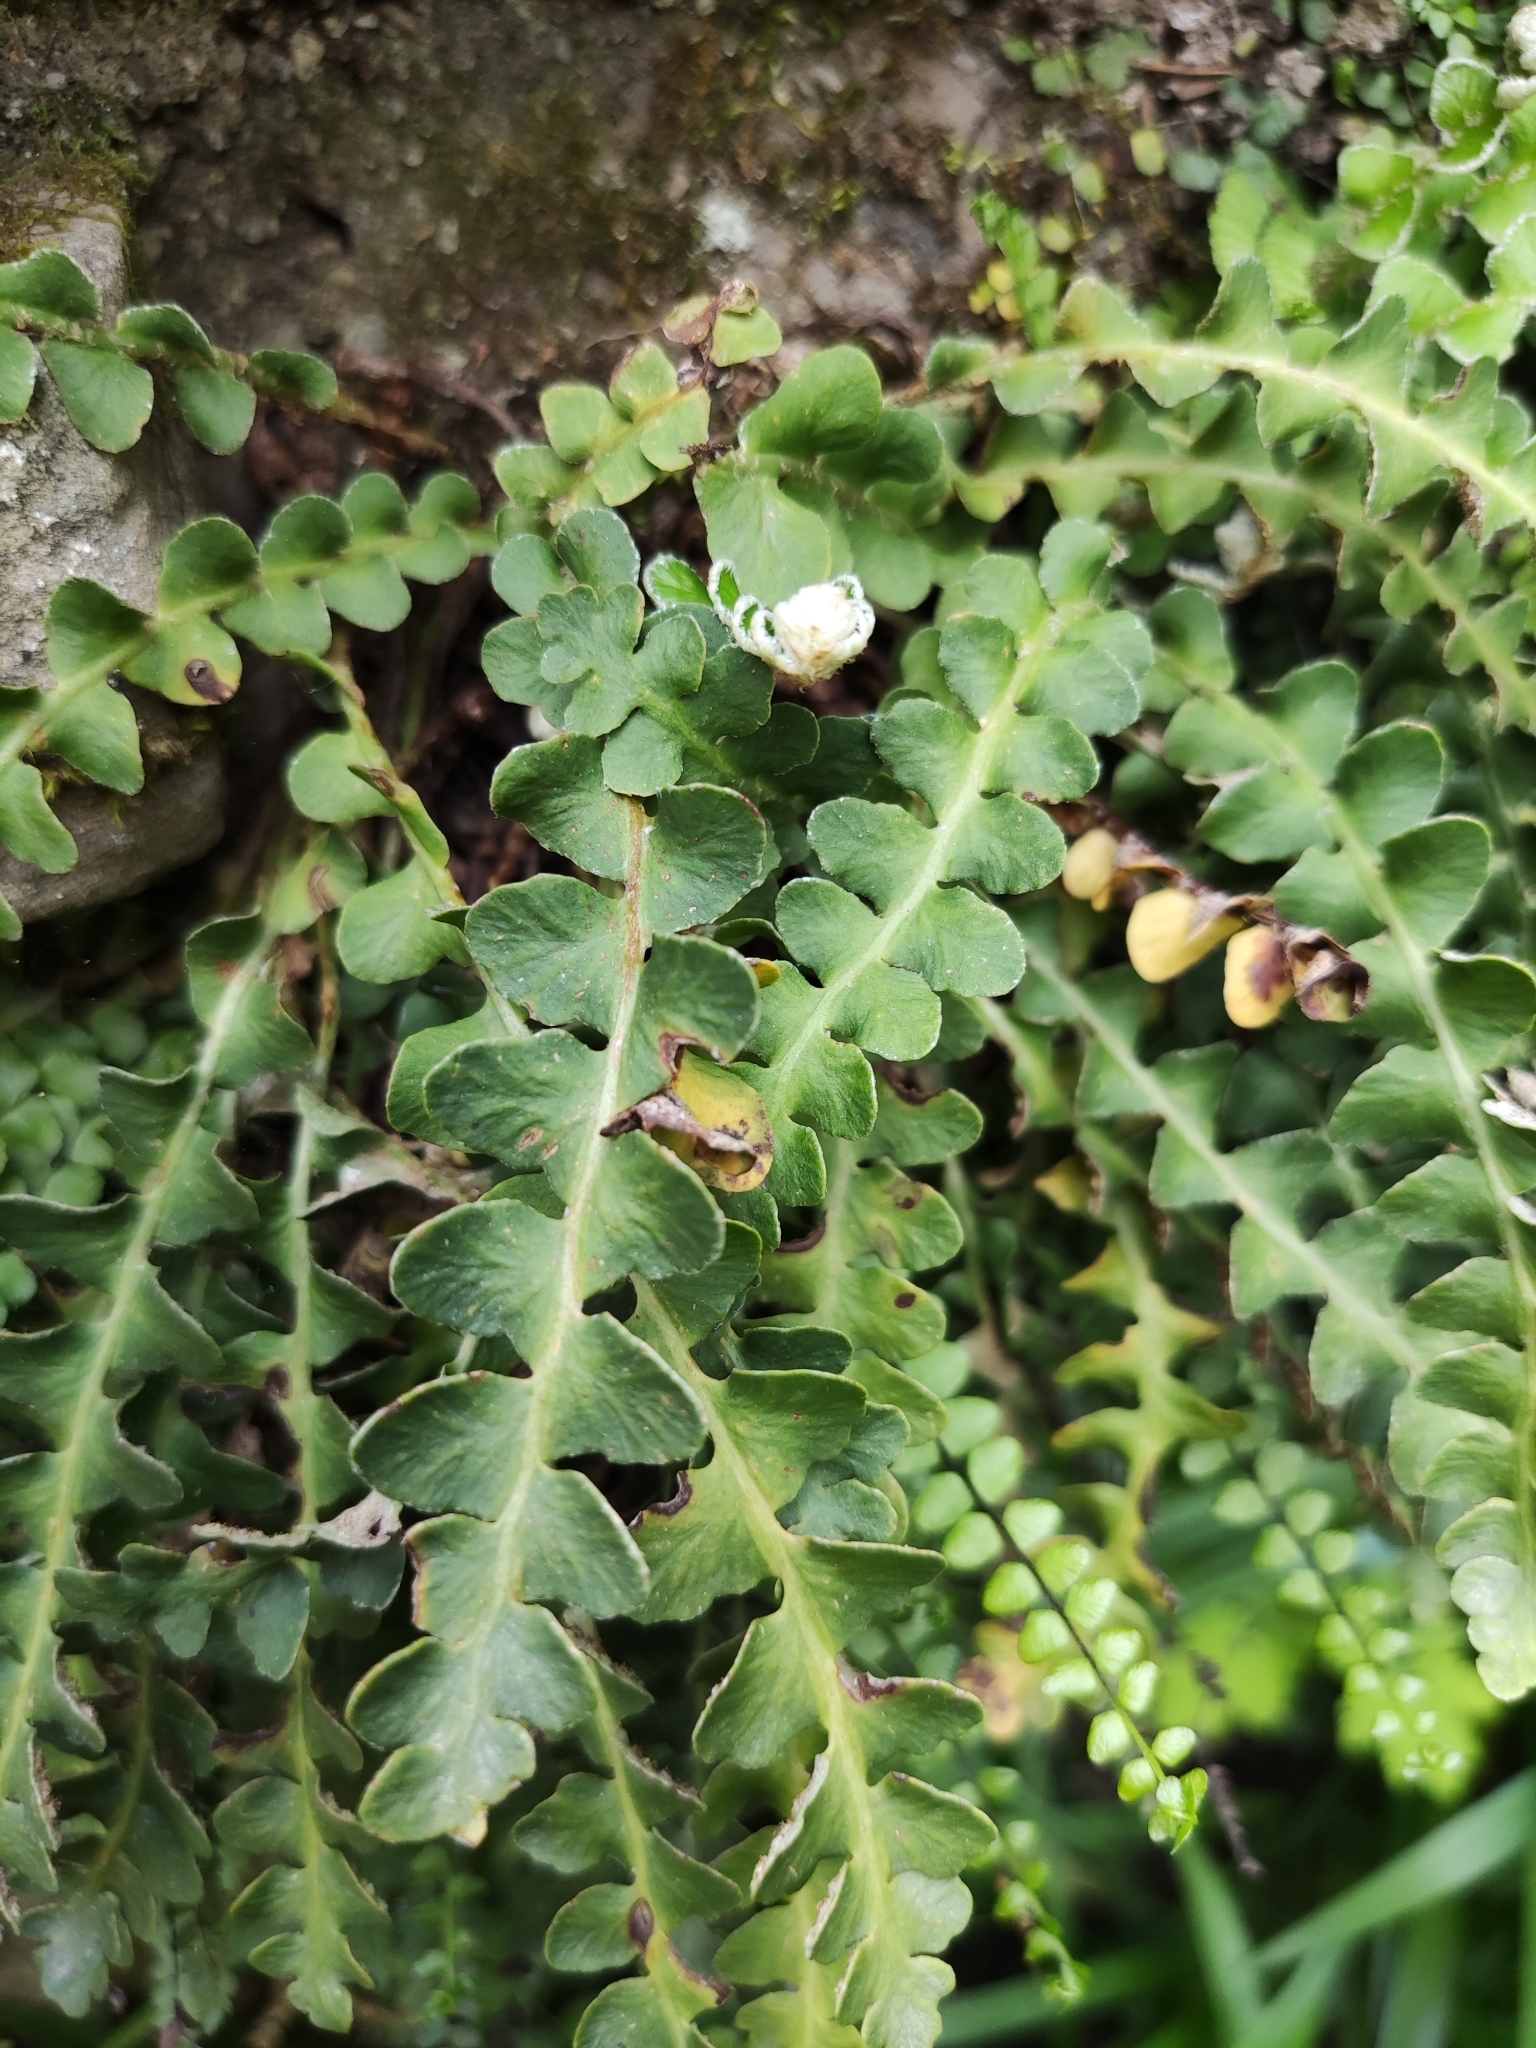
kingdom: Plantae
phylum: Tracheophyta
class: Polypodiopsida
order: Polypodiales
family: Aspleniaceae
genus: Asplenium
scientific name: Asplenium ceterach
